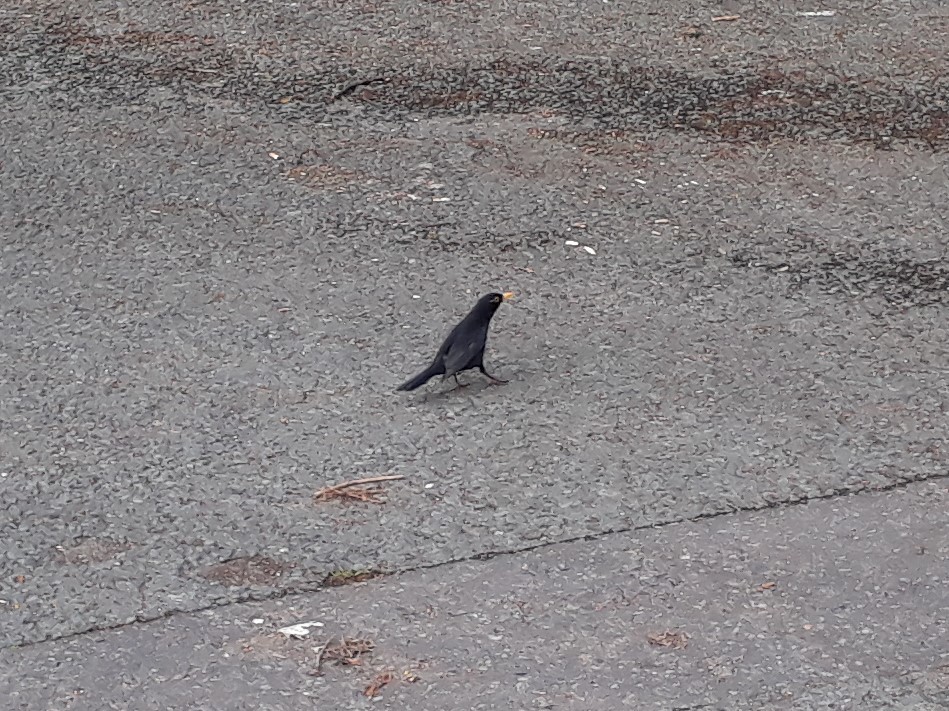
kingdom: Animalia
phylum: Chordata
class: Aves
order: Passeriformes
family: Turdidae
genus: Turdus
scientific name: Turdus merula
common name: Common blackbird
